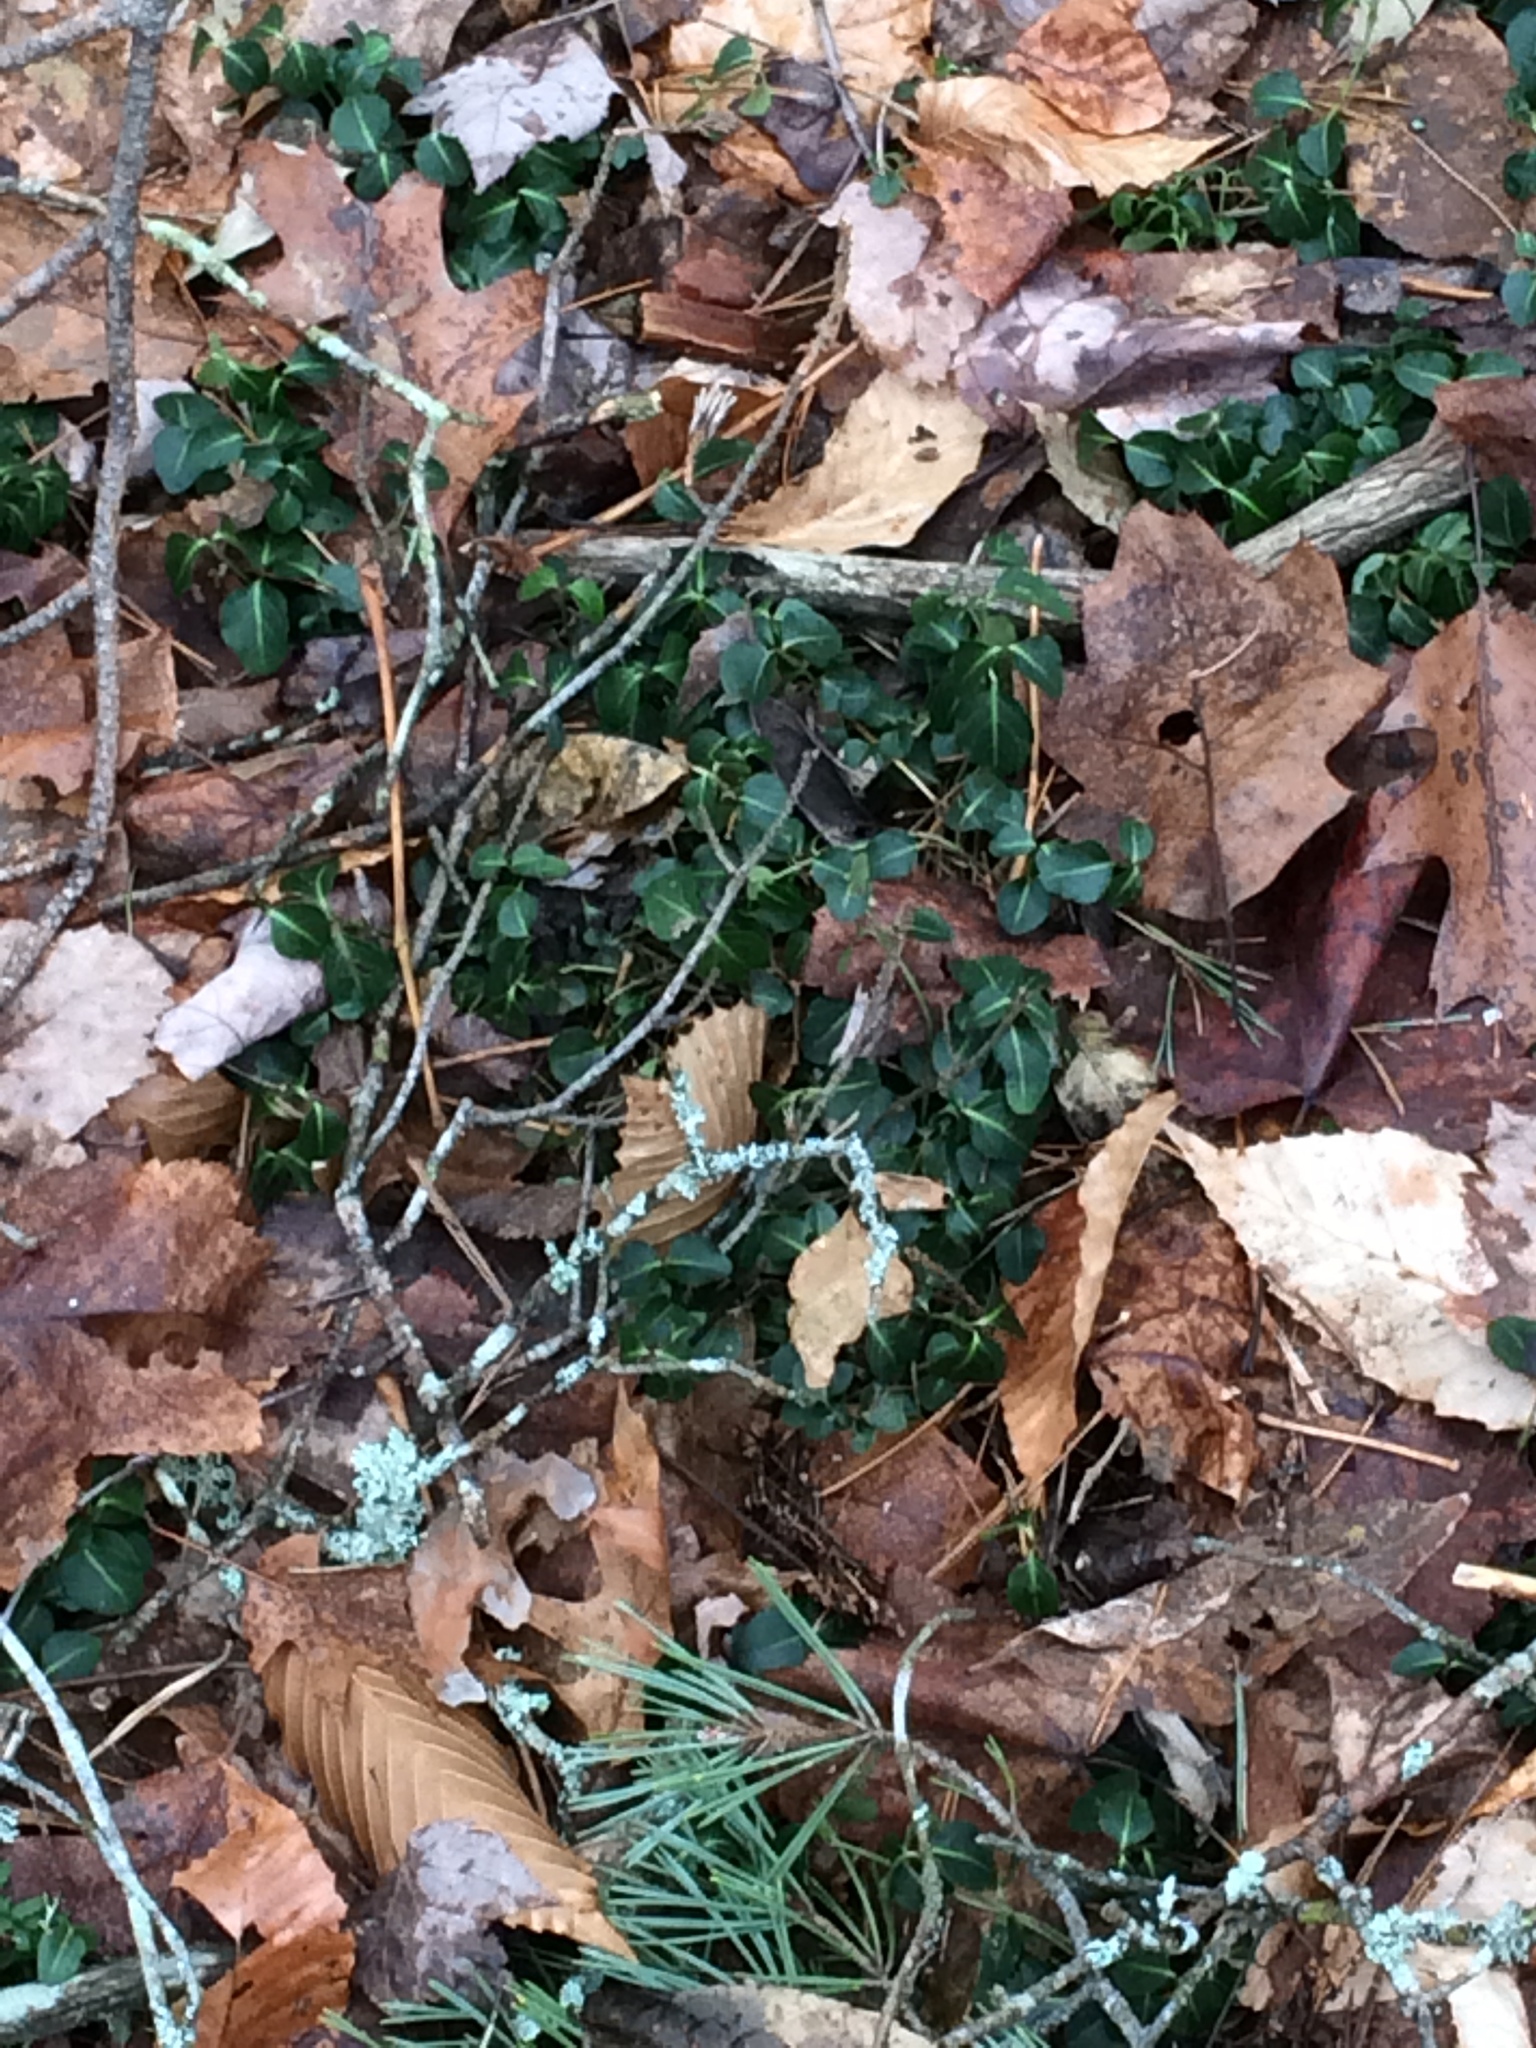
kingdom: Plantae
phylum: Tracheophyta
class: Magnoliopsida
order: Gentianales
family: Rubiaceae
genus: Mitchella
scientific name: Mitchella repens
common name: Partridge-berry
